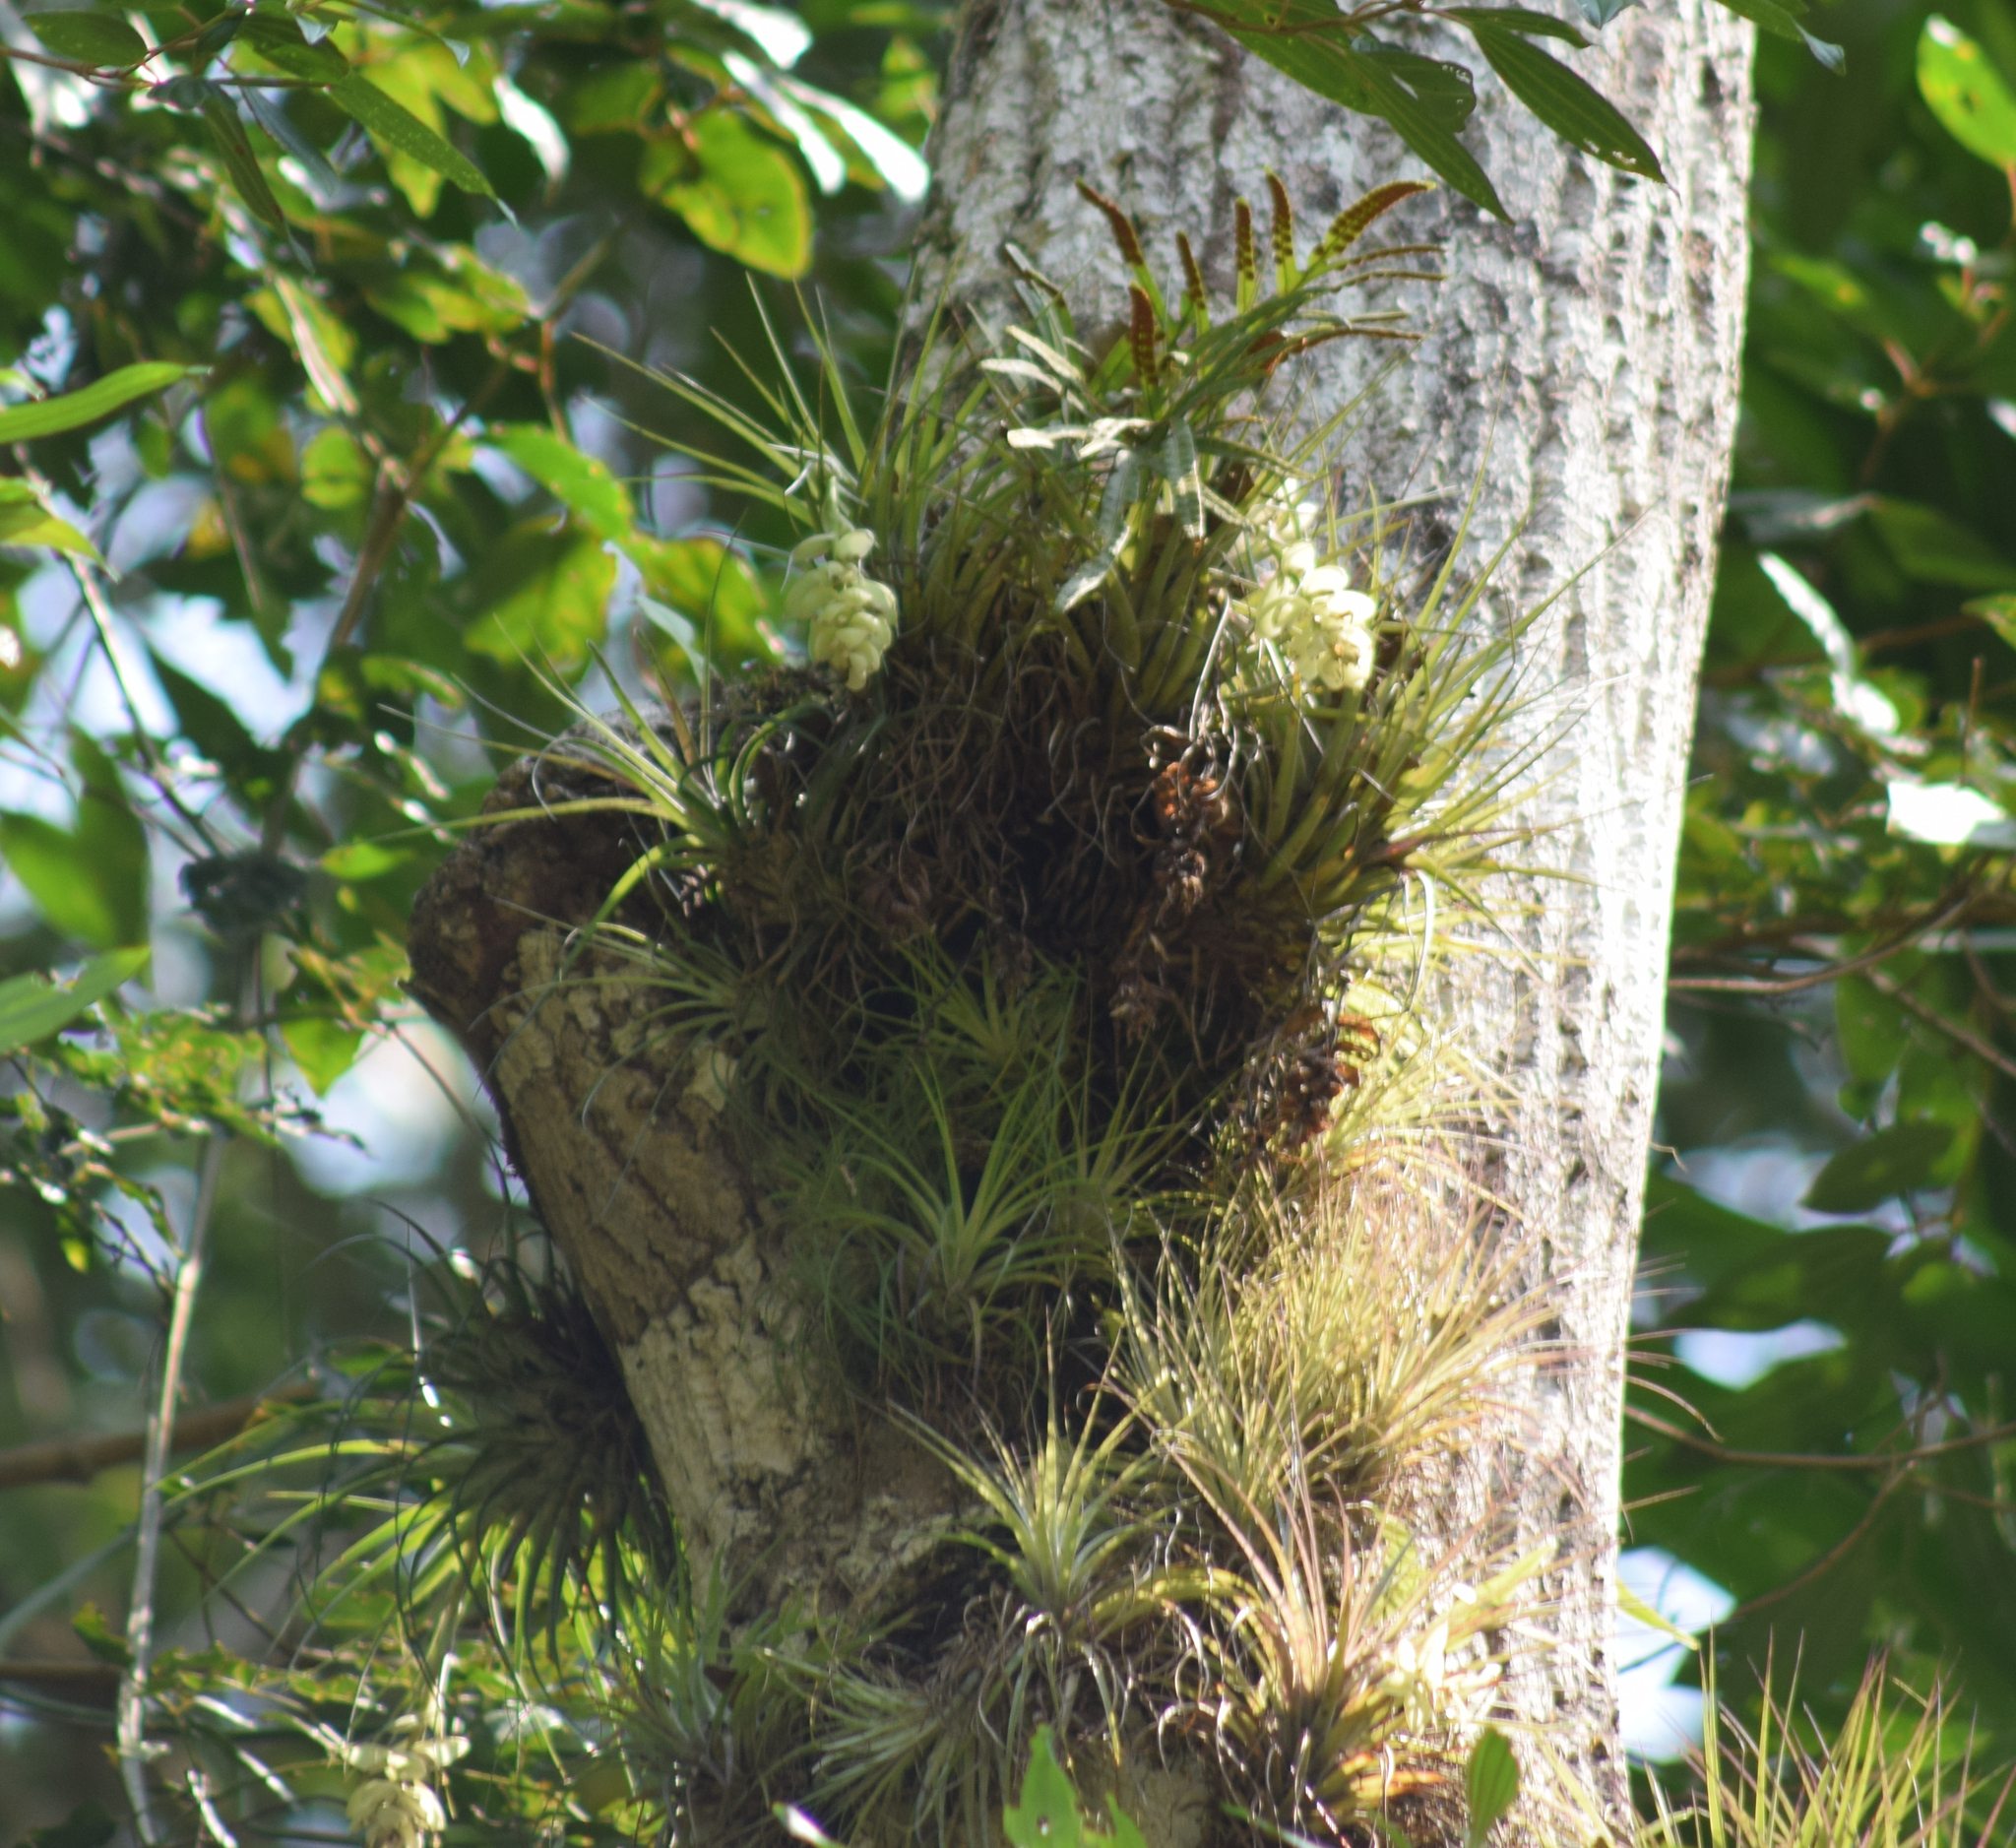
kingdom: Plantae
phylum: Tracheophyta
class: Liliopsida
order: Poales
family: Bromeliaceae
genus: Tillandsia
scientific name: Tillandsia stricta
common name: Airplant
